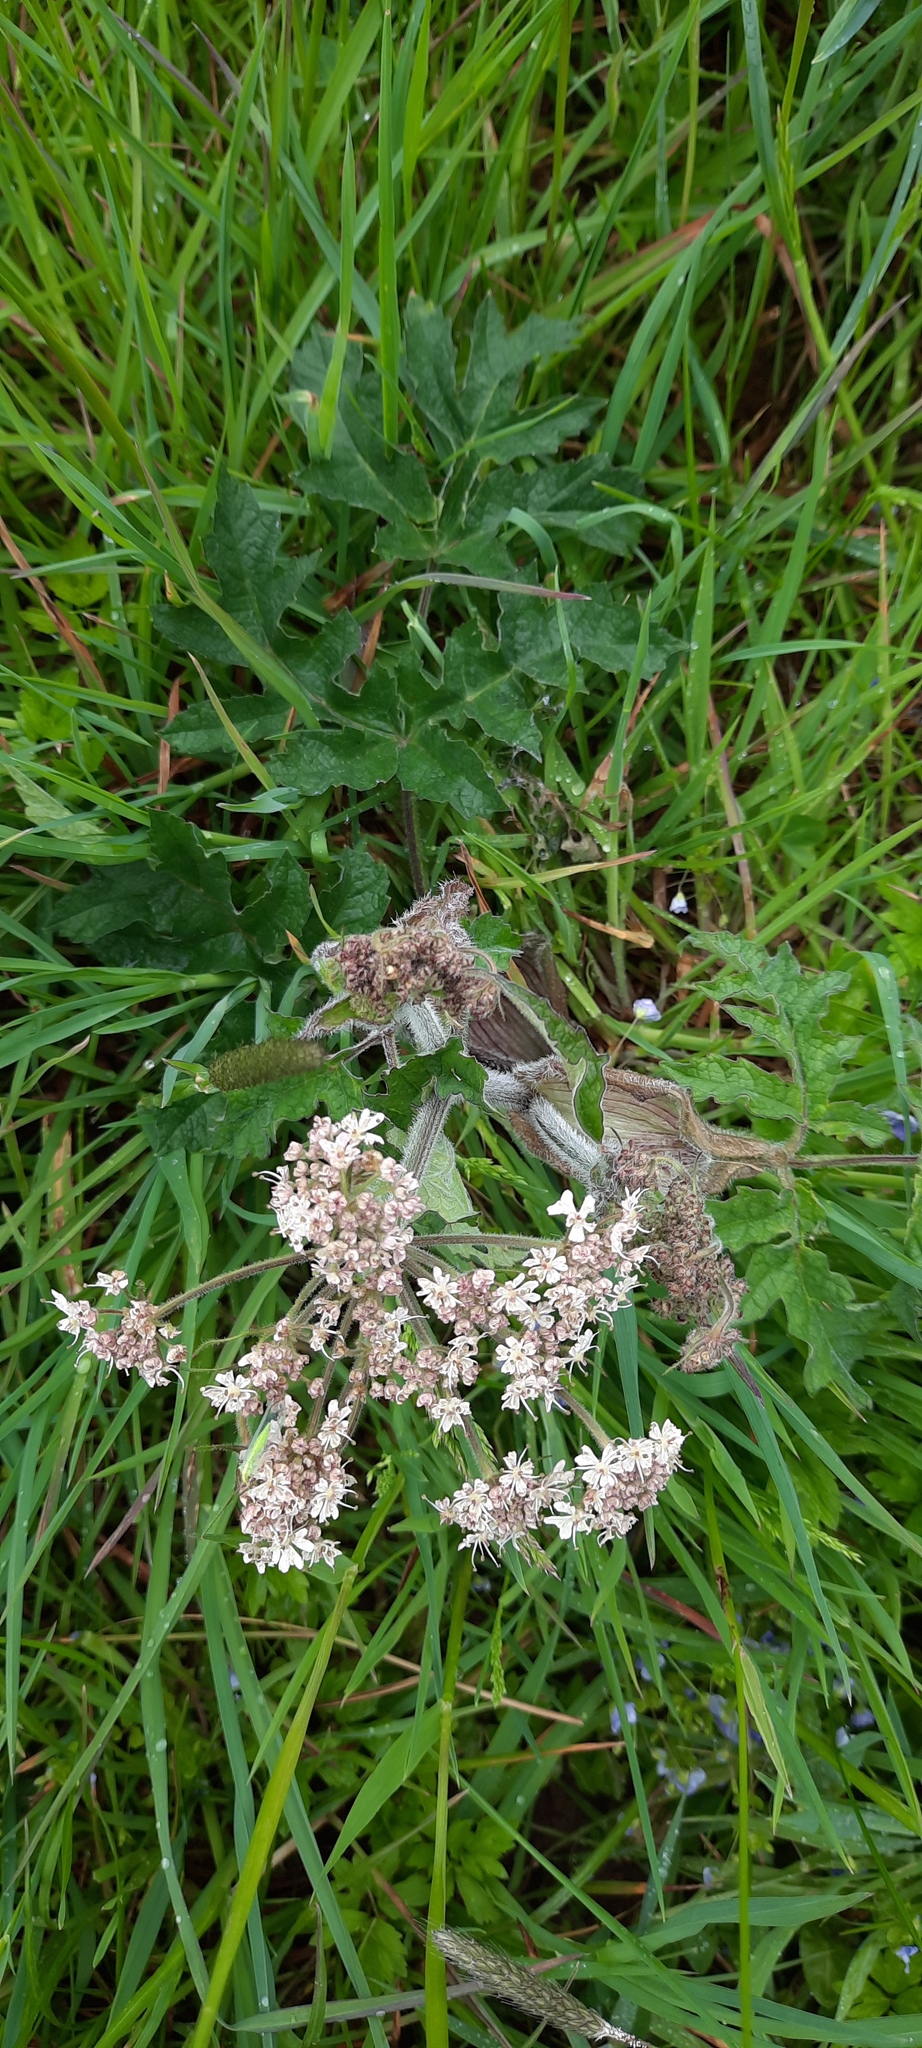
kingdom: Plantae
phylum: Tracheophyta
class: Magnoliopsida
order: Apiales
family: Apiaceae
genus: Heracleum
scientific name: Heracleum sphondylium
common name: Hogweed
